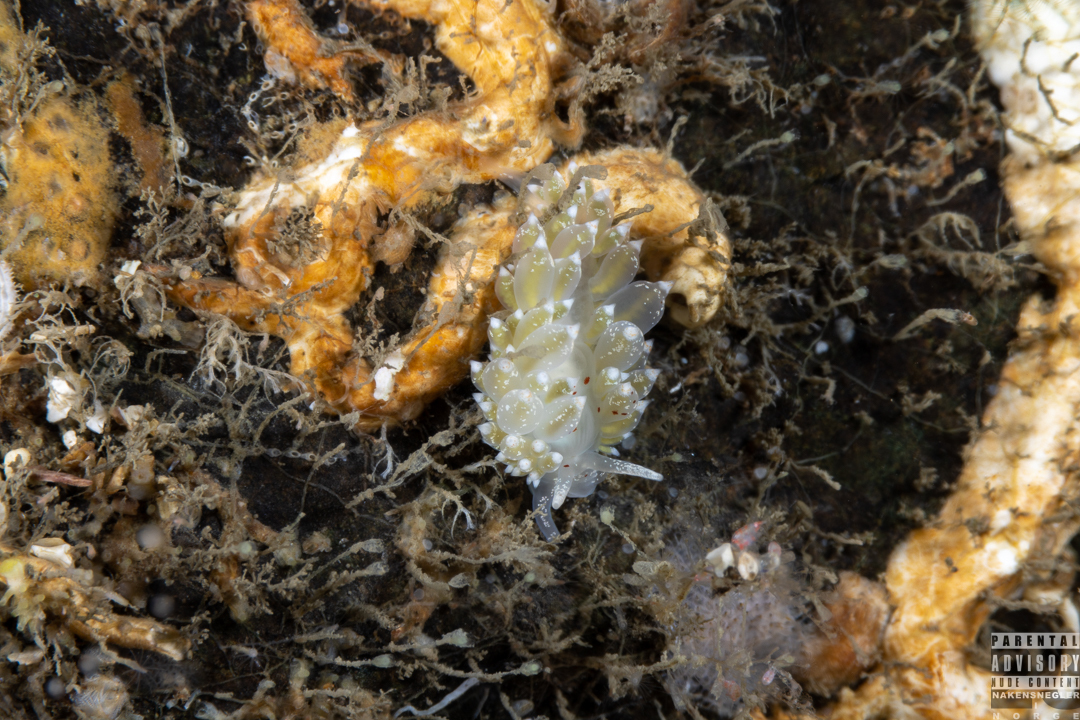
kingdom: Animalia
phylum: Mollusca
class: Gastropoda
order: Nudibranchia
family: Eubranchidae
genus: Amphorina
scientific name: Amphorina pallida
